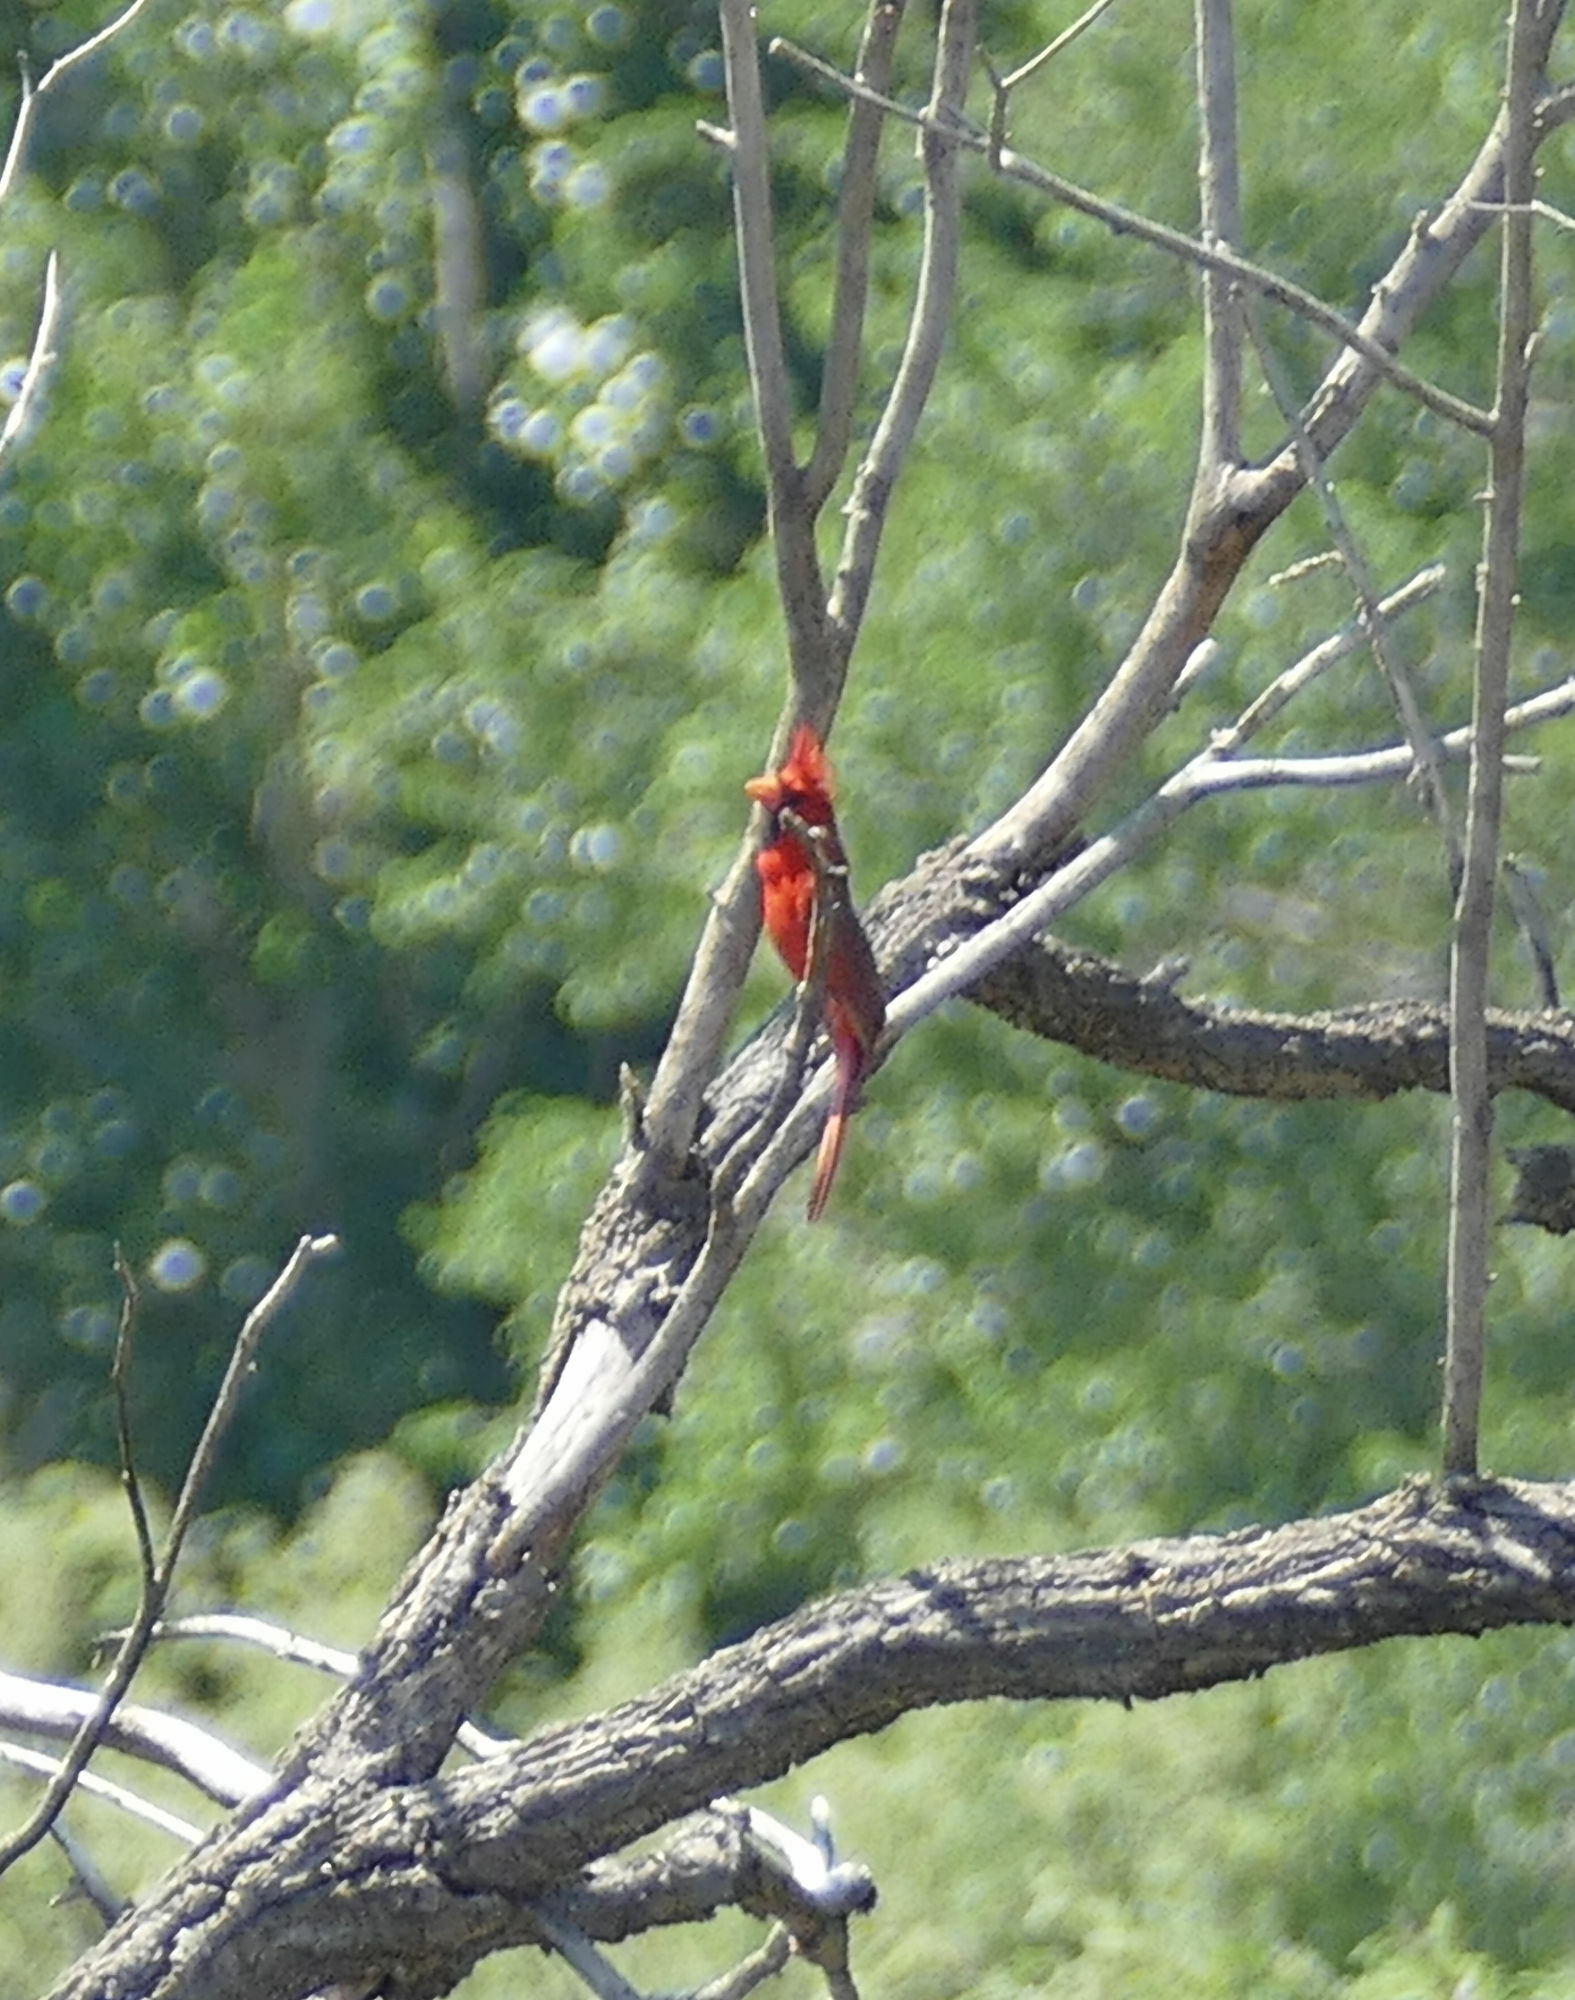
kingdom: Animalia
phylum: Chordata
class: Aves
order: Passeriformes
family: Cardinalidae
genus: Cardinalis
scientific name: Cardinalis cardinalis
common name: Northern cardinal
